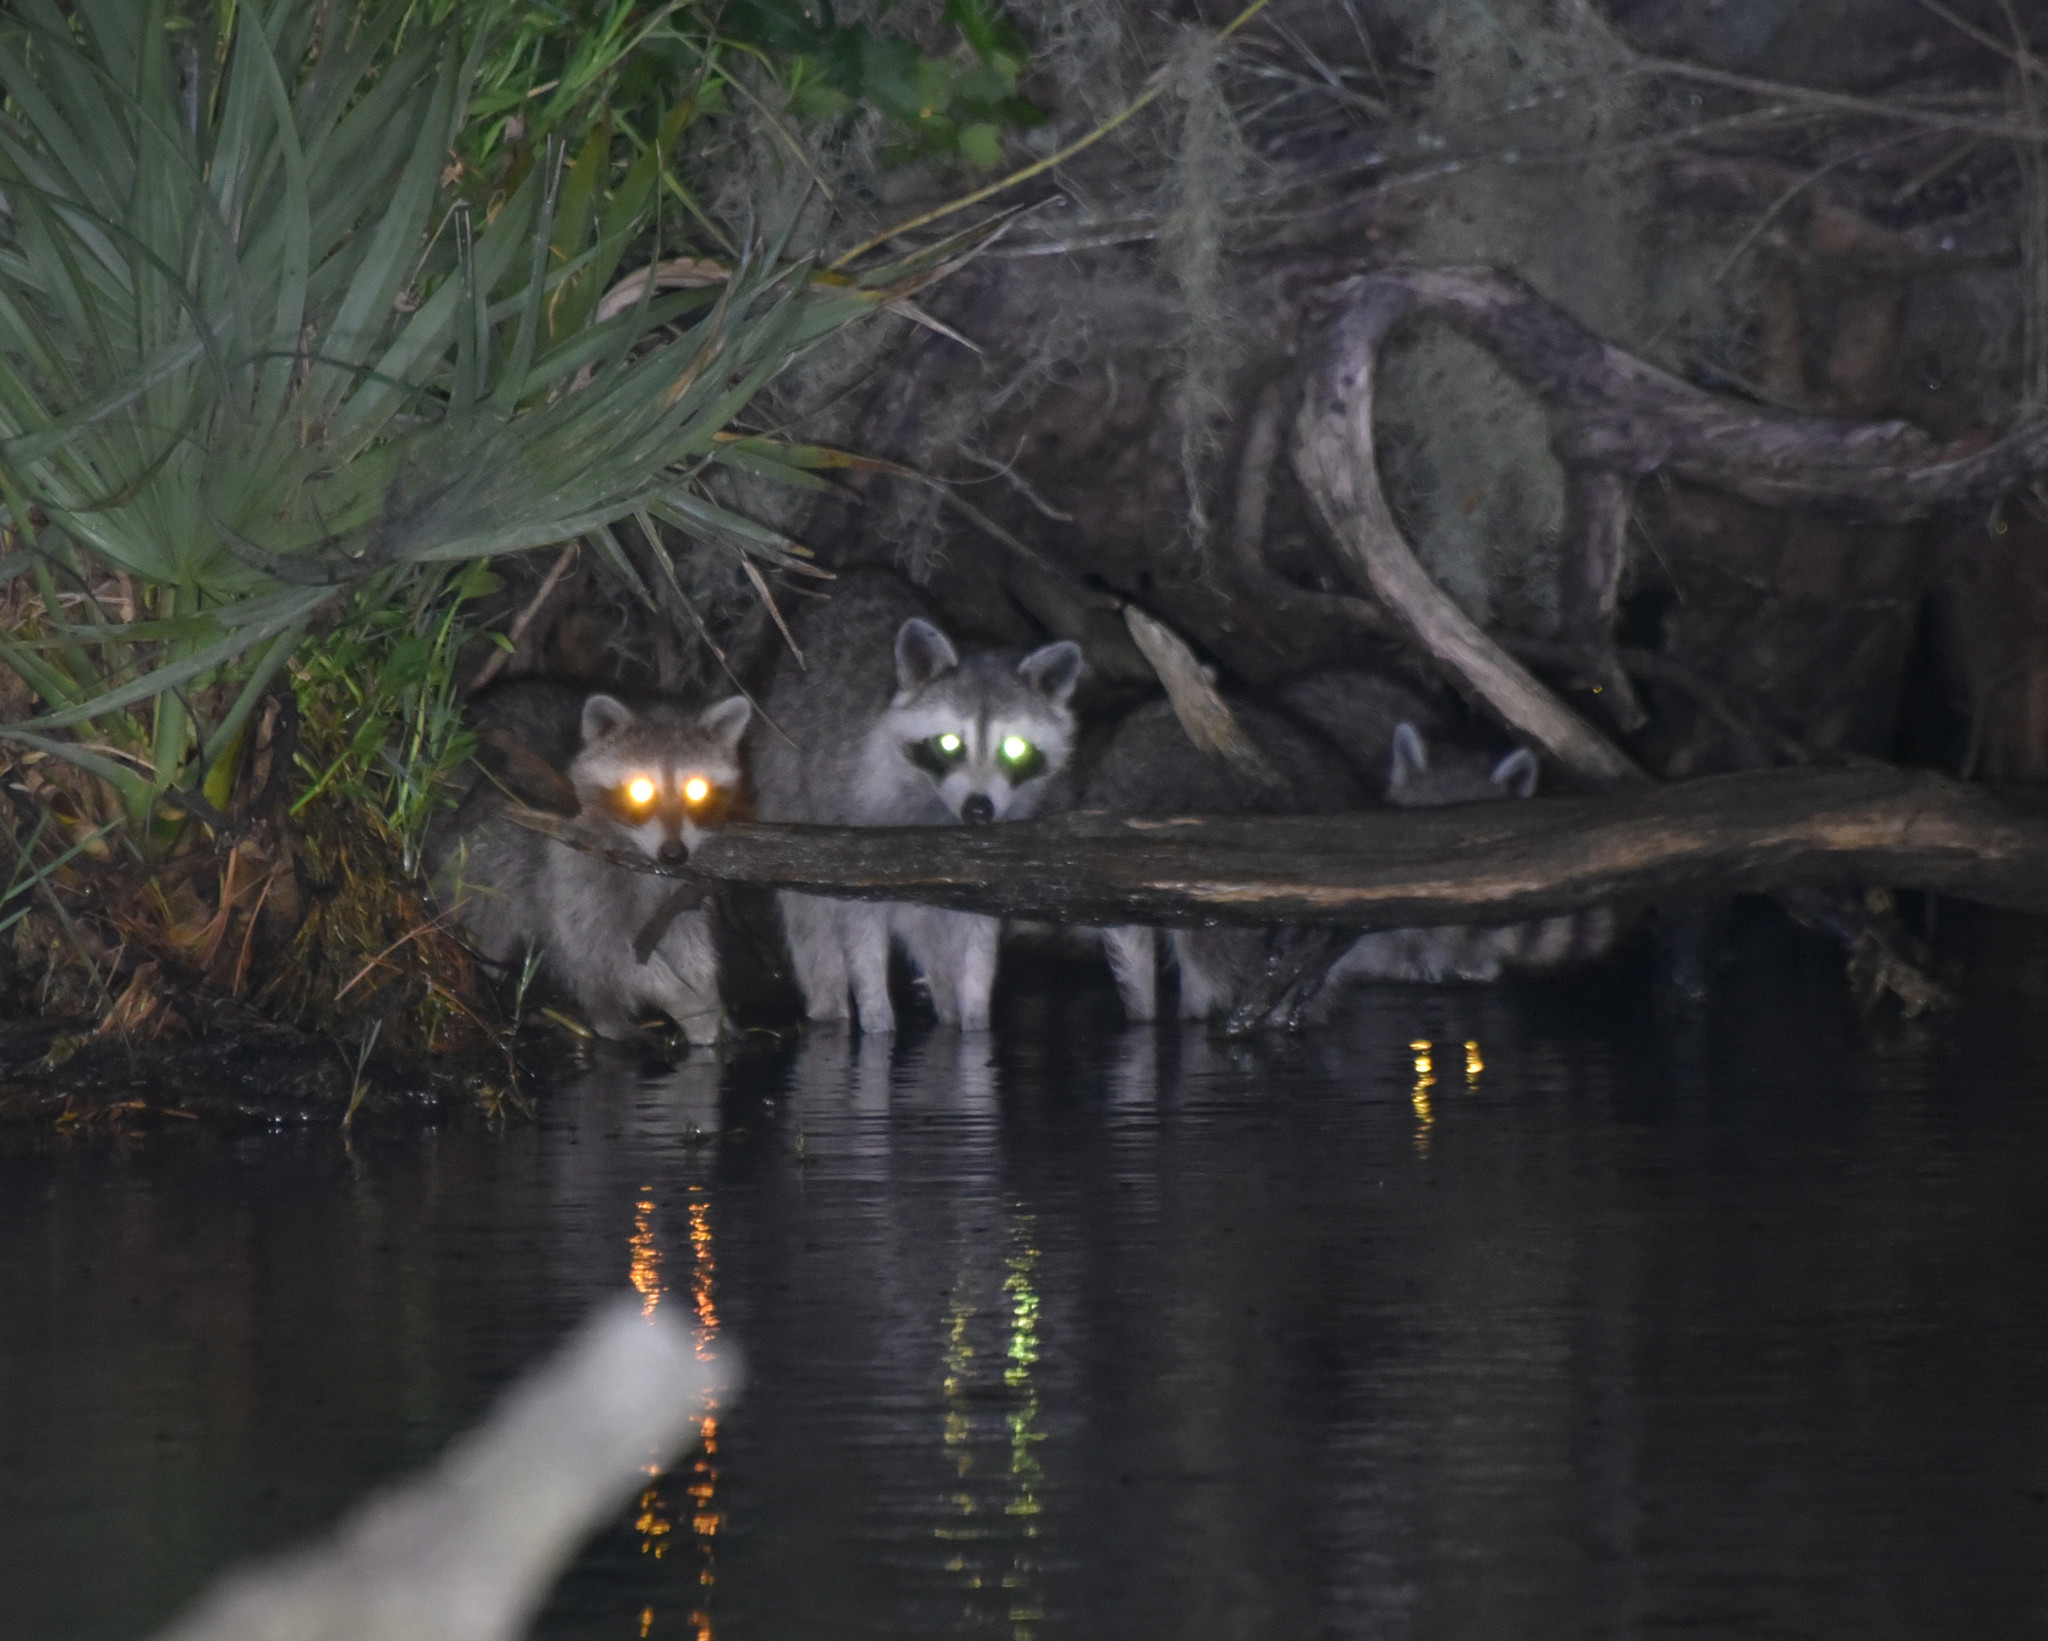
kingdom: Animalia
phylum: Chordata
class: Mammalia
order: Carnivora
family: Procyonidae
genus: Procyon
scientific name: Procyon lotor
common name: Raccoon
